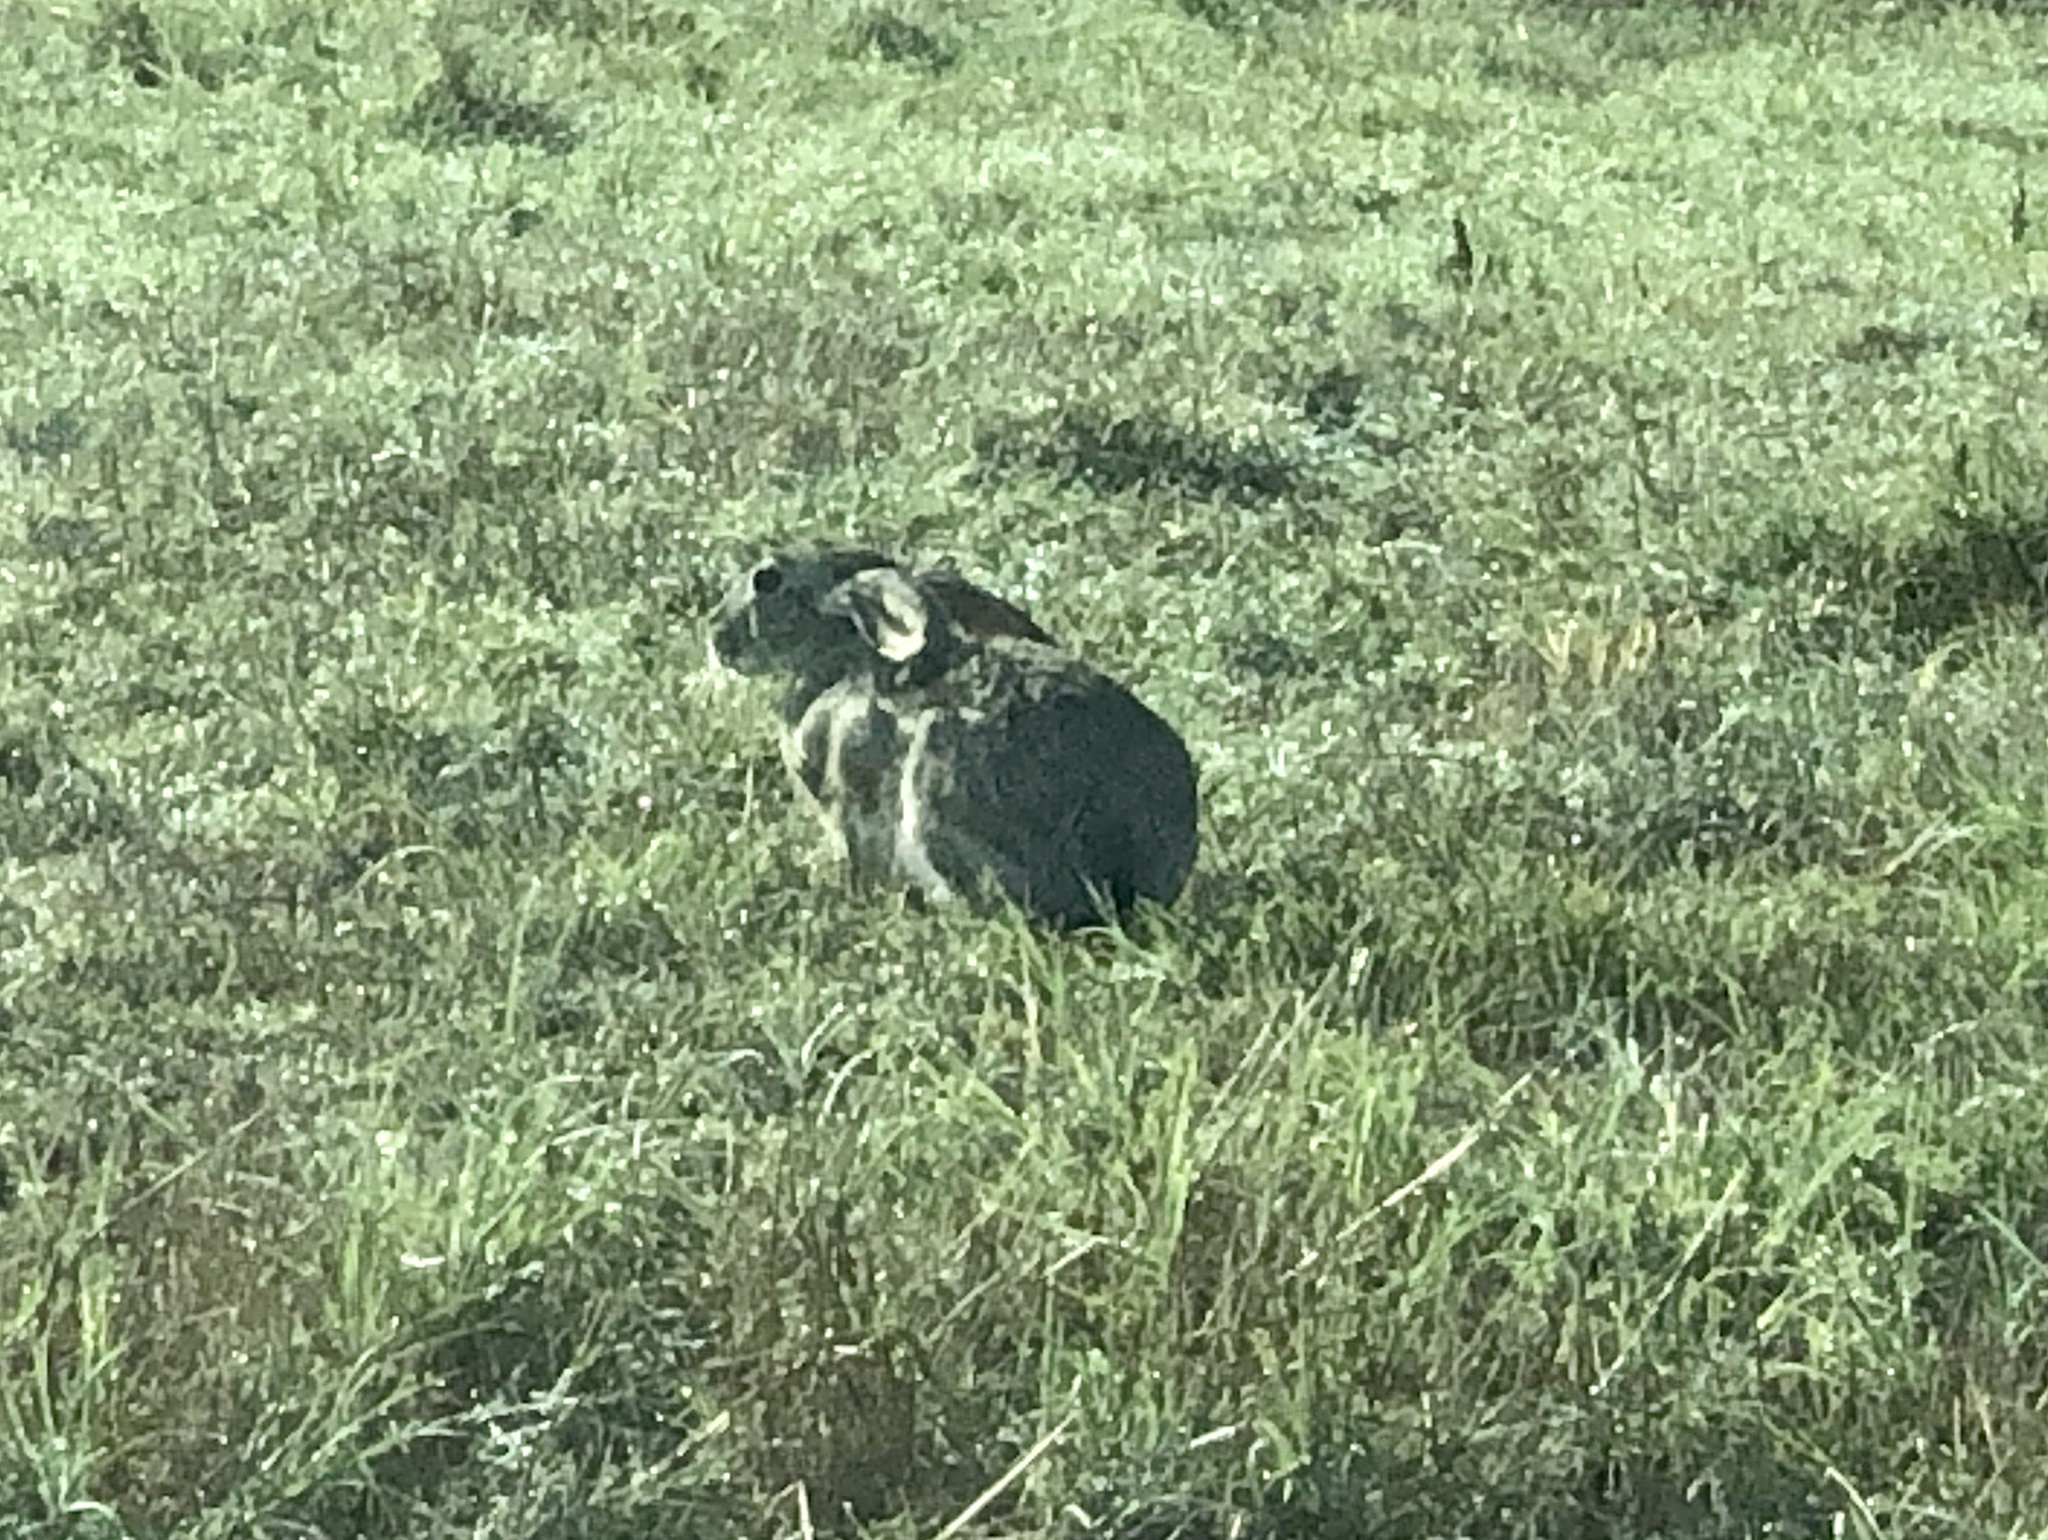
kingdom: Animalia
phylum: Chordata
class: Mammalia
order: Lagomorpha
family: Leporidae
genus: Lepus
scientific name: Lepus californicus
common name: Black-tailed jackrabbit
